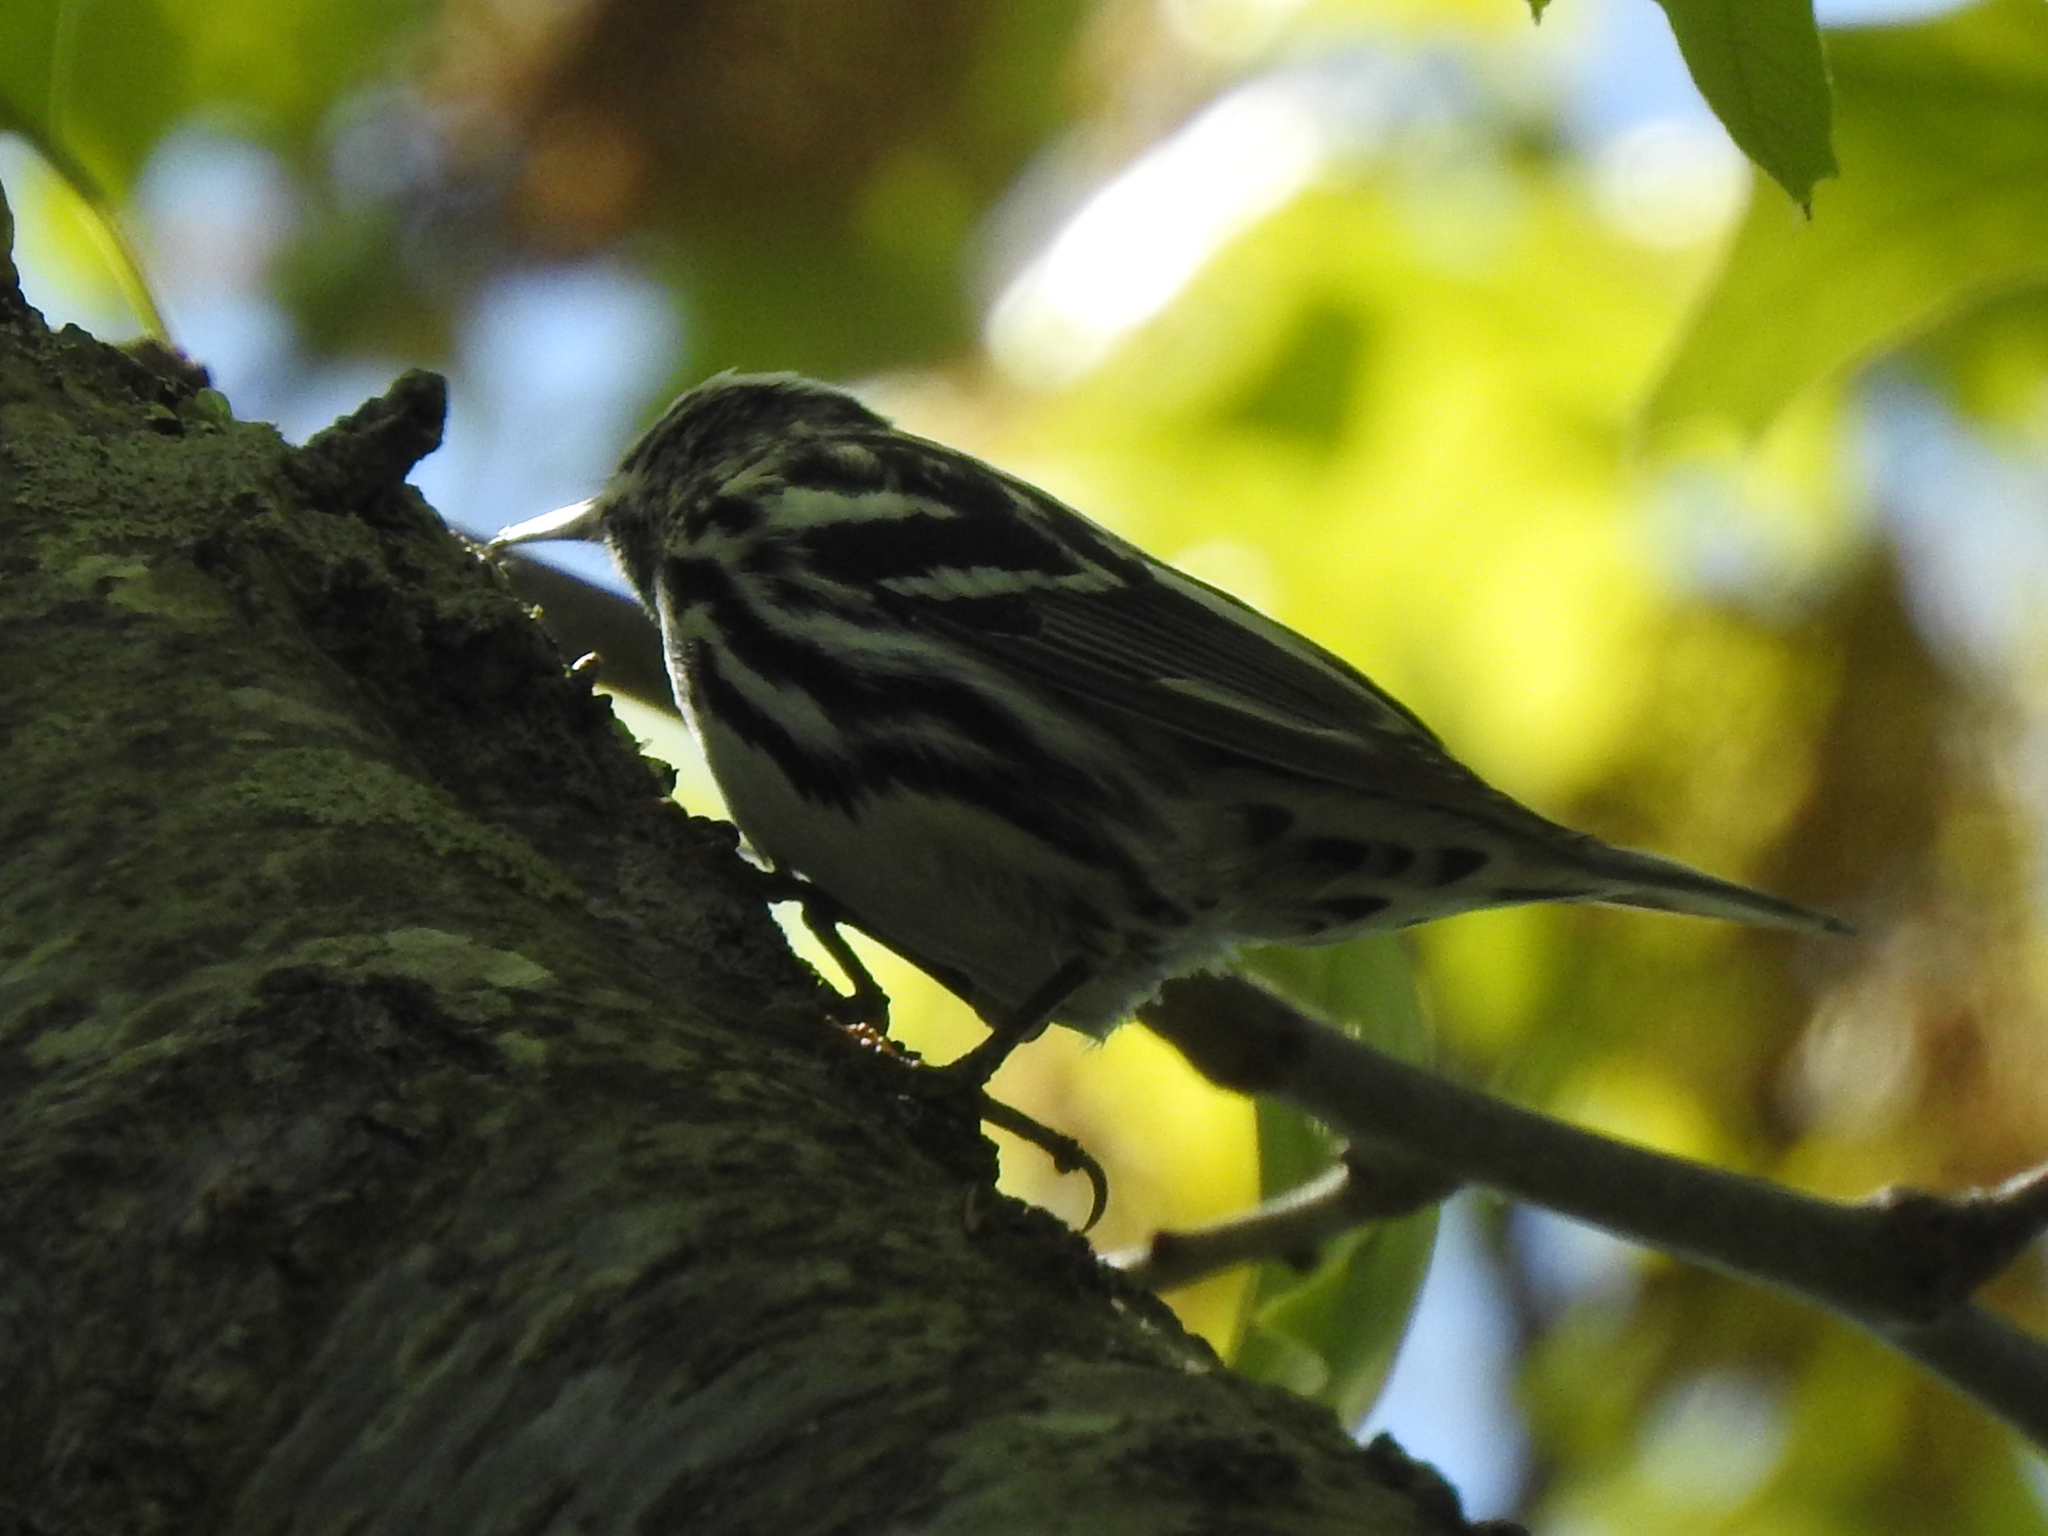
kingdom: Animalia
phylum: Chordata
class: Aves
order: Passeriformes
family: Parulidae
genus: Mniotilta
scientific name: Mniotilta varia
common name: Black-and-white warbler
